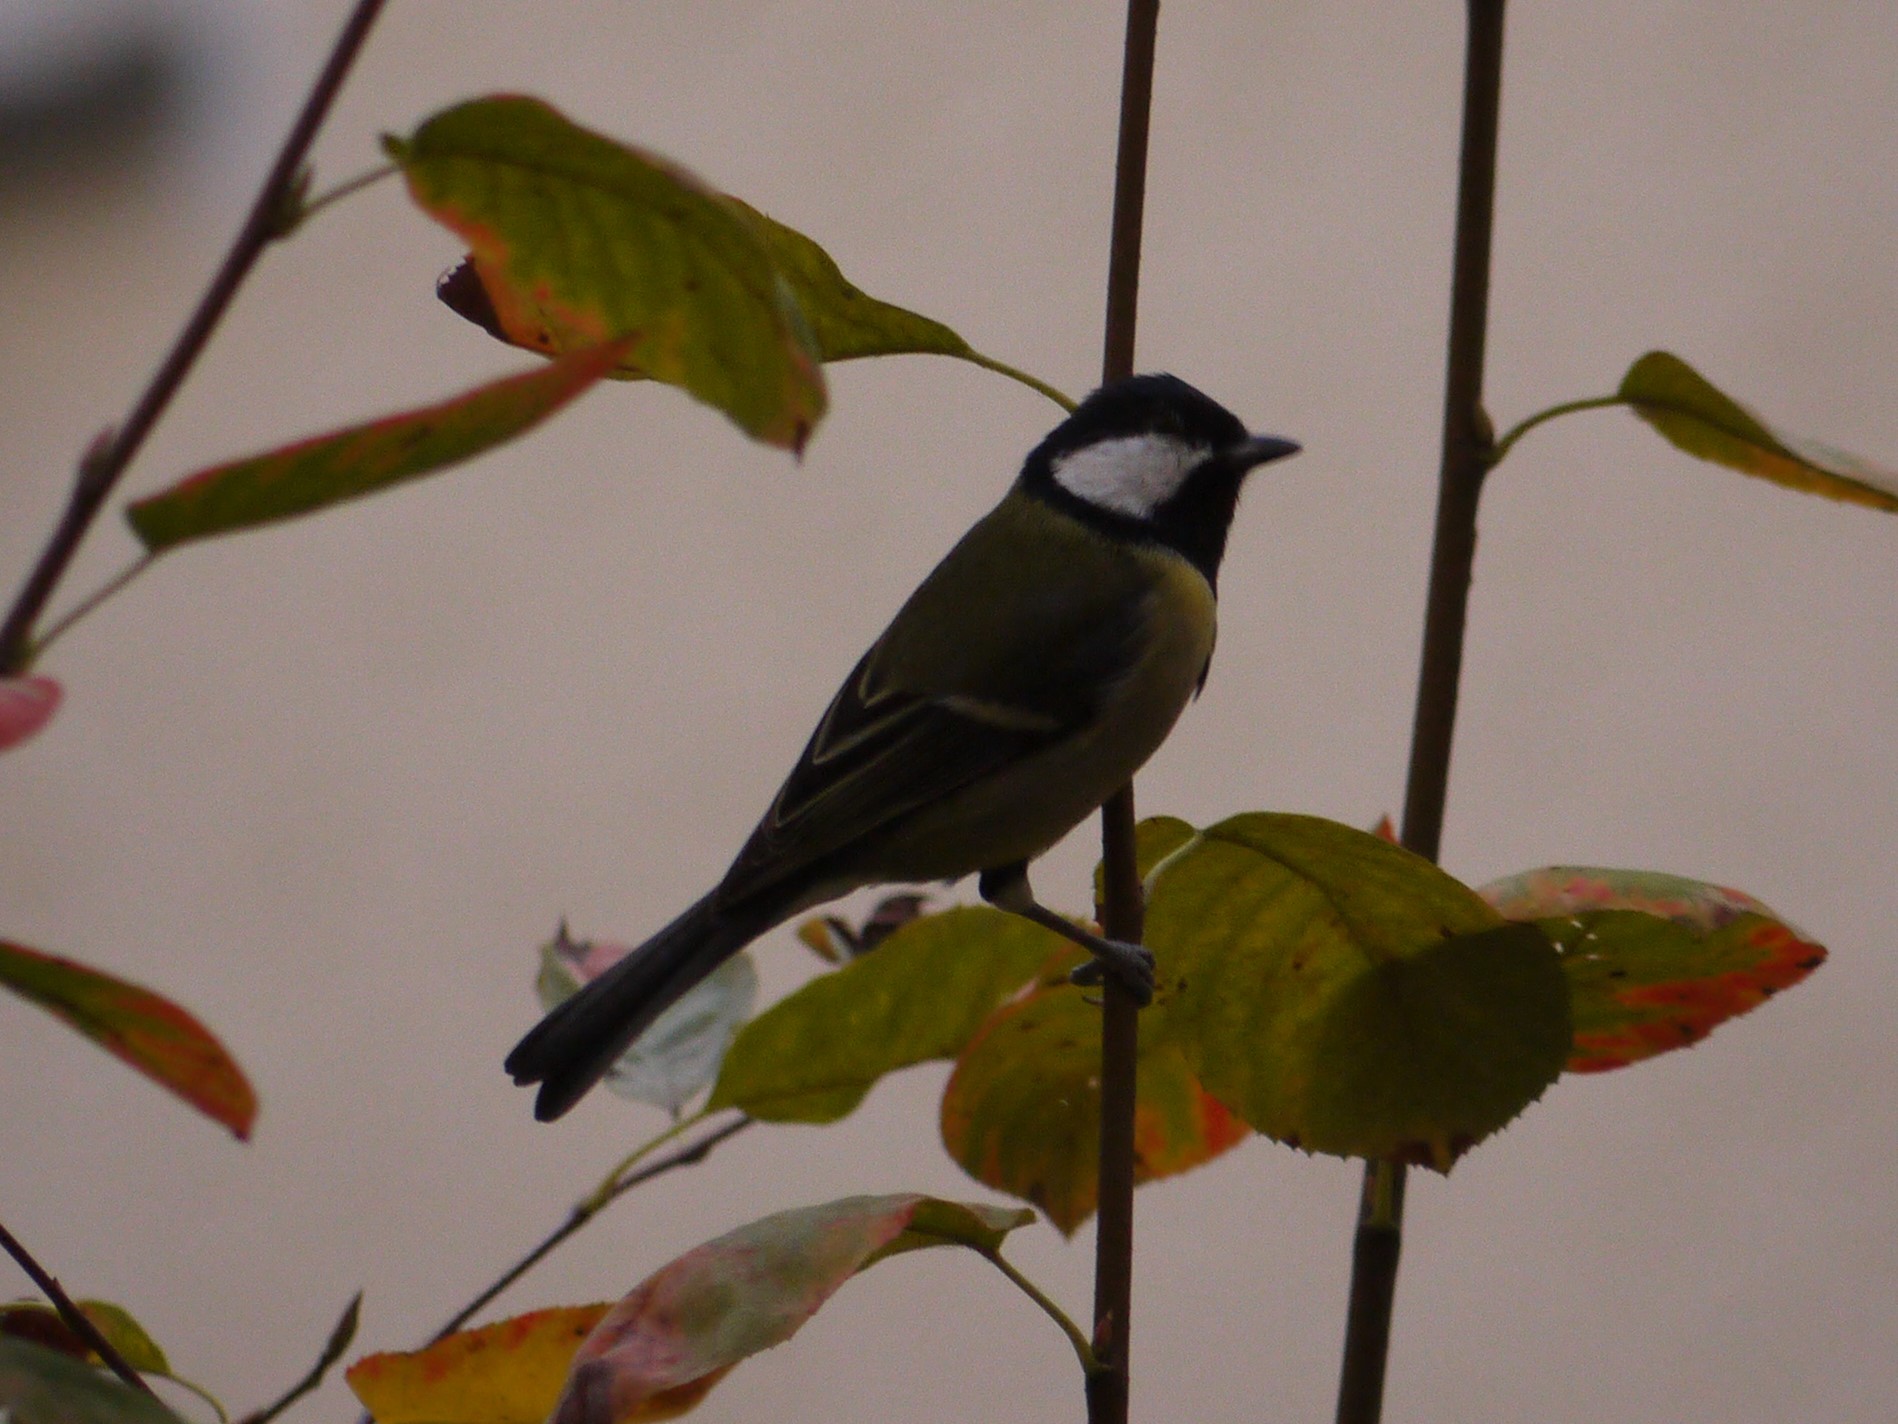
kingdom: Animalia
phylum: Chordata
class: Aves
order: Passeriformes
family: Paridae
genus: Parus
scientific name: Parus major
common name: Great tit
